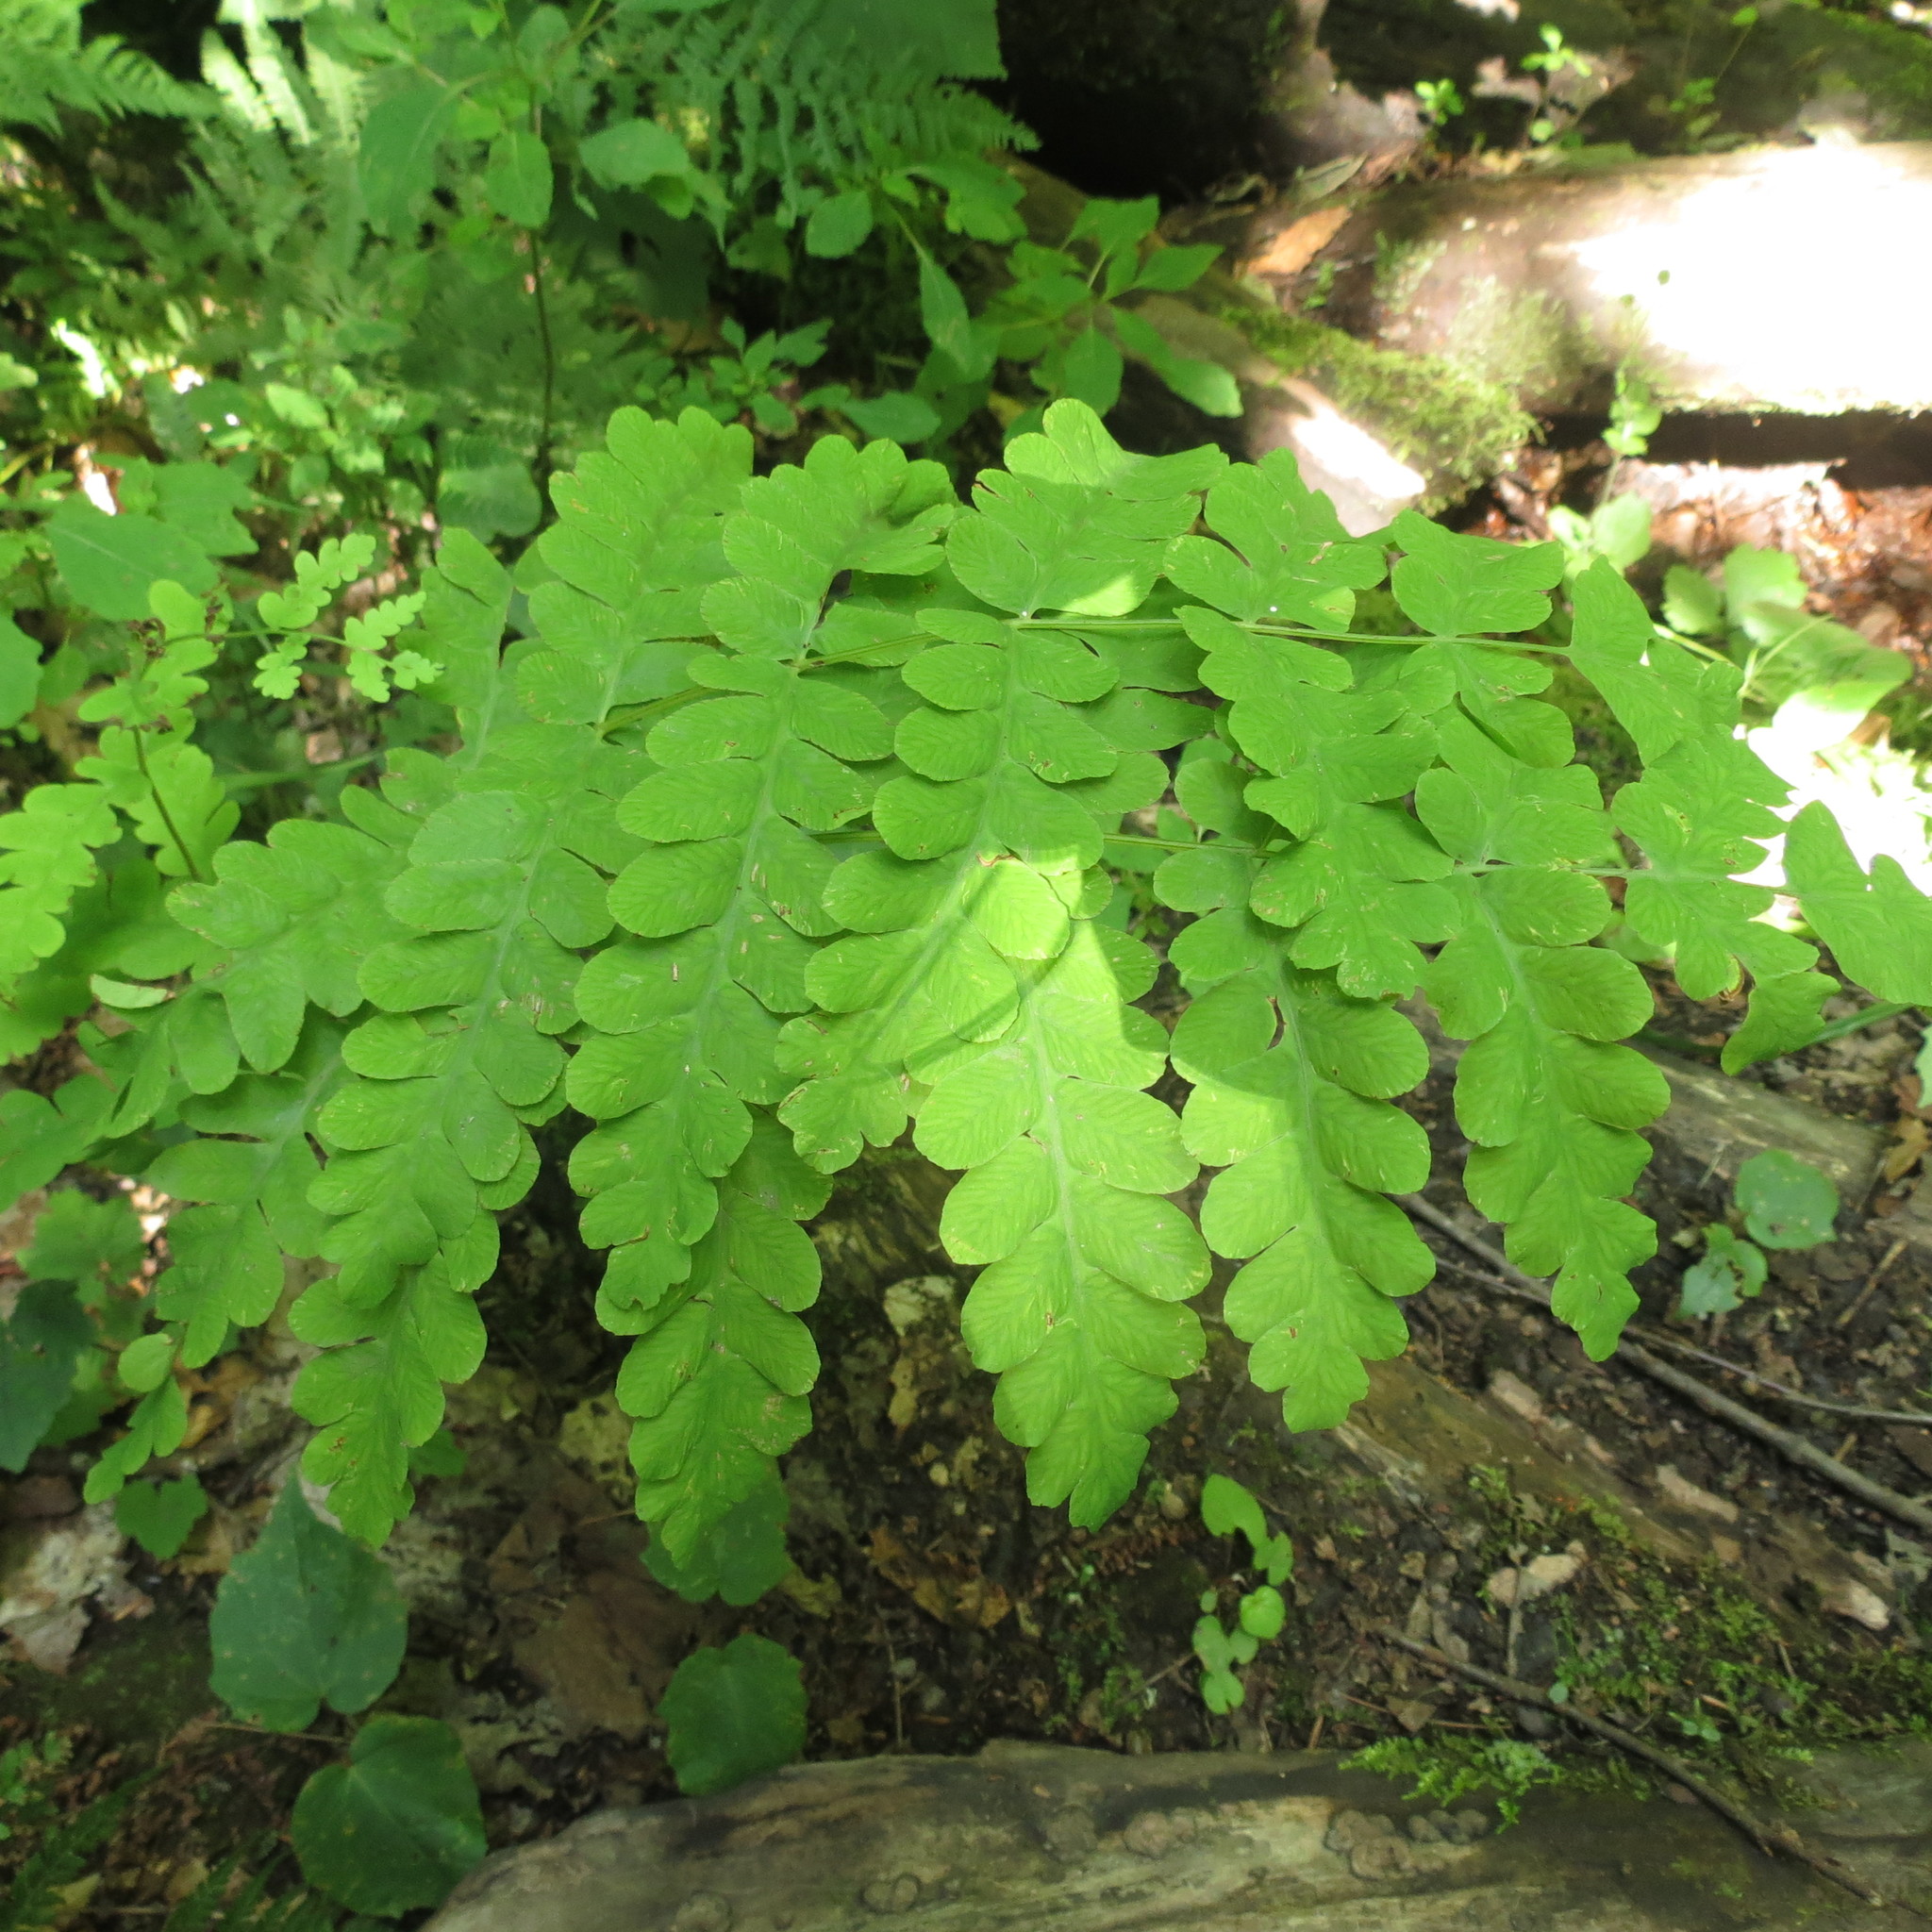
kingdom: Plantae
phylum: Tracheophyta
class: Polypodiopsida
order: Osmundales
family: Osmundaceae
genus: Claytosmunda
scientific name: Claytosmunda claytoniana
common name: Clayton's fern
